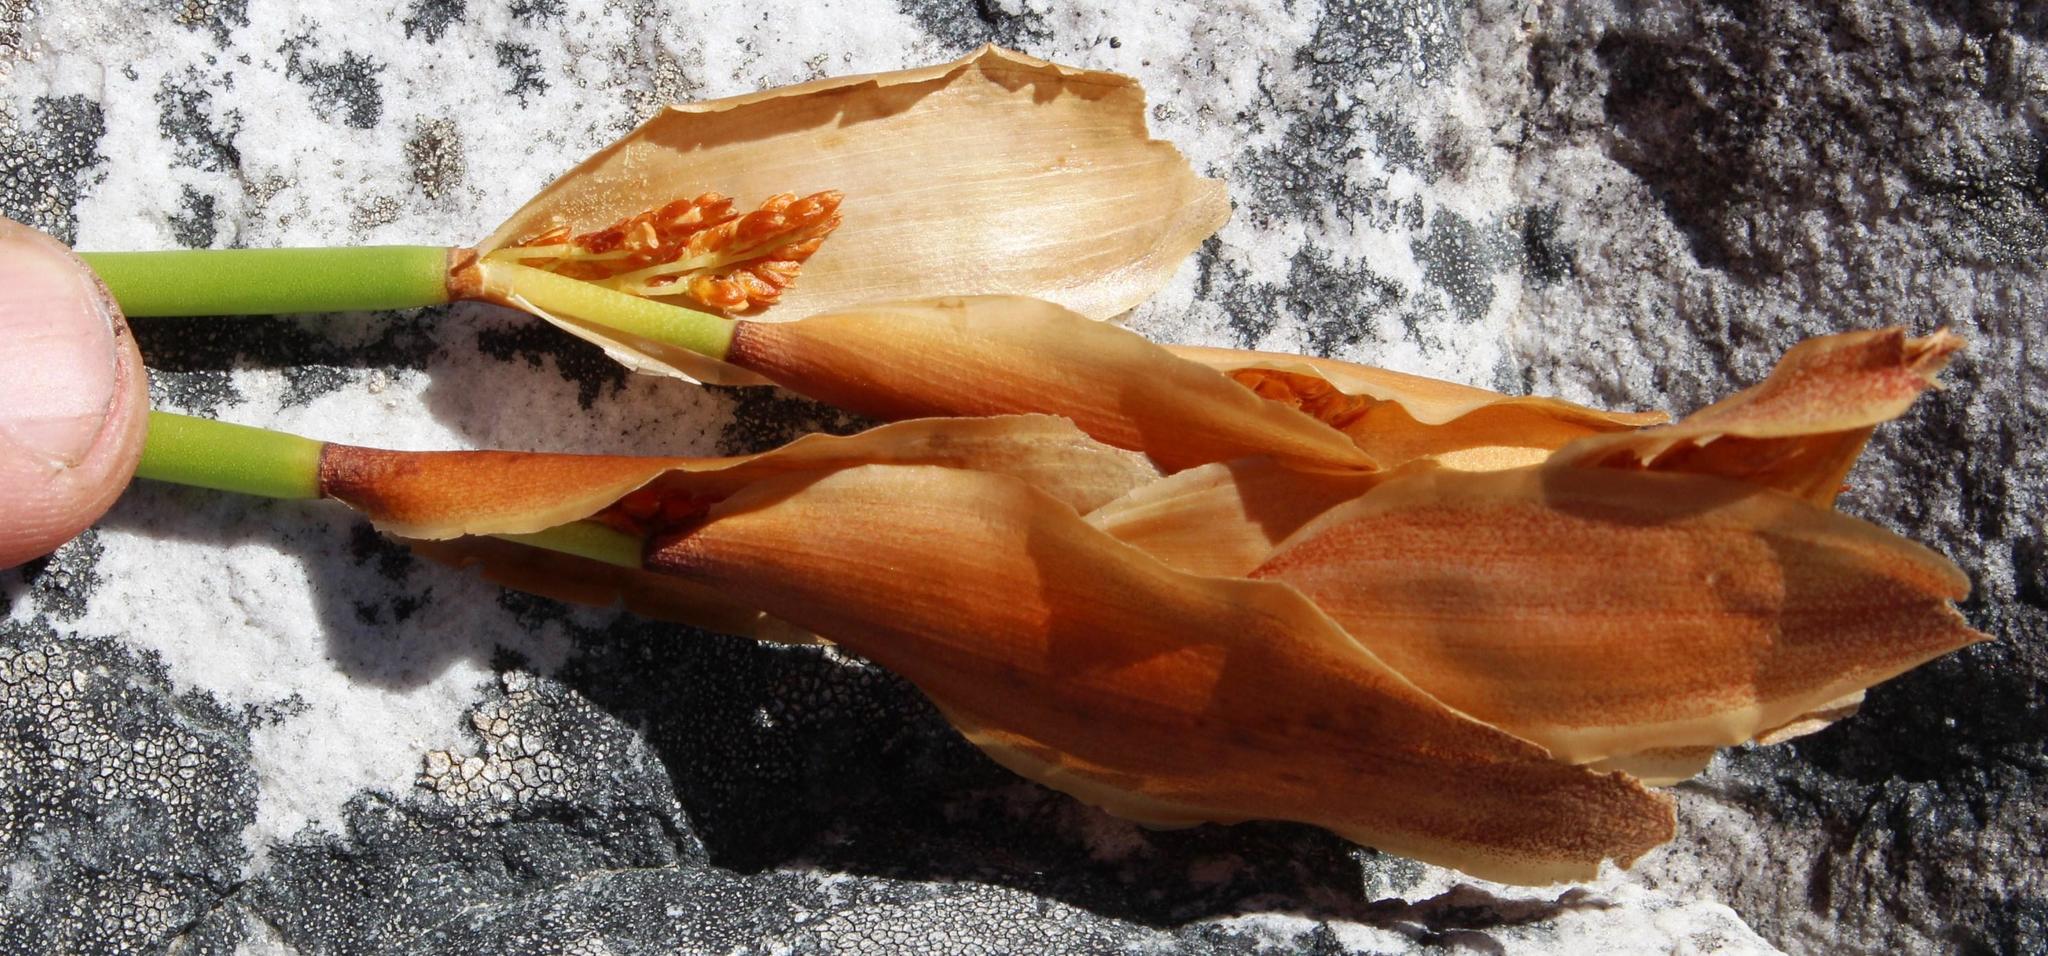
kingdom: Plantae
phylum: Tracheophyta
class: Liliopsida
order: Poales
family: Restionaceae
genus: Elegia
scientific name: Elegia vaginulata
